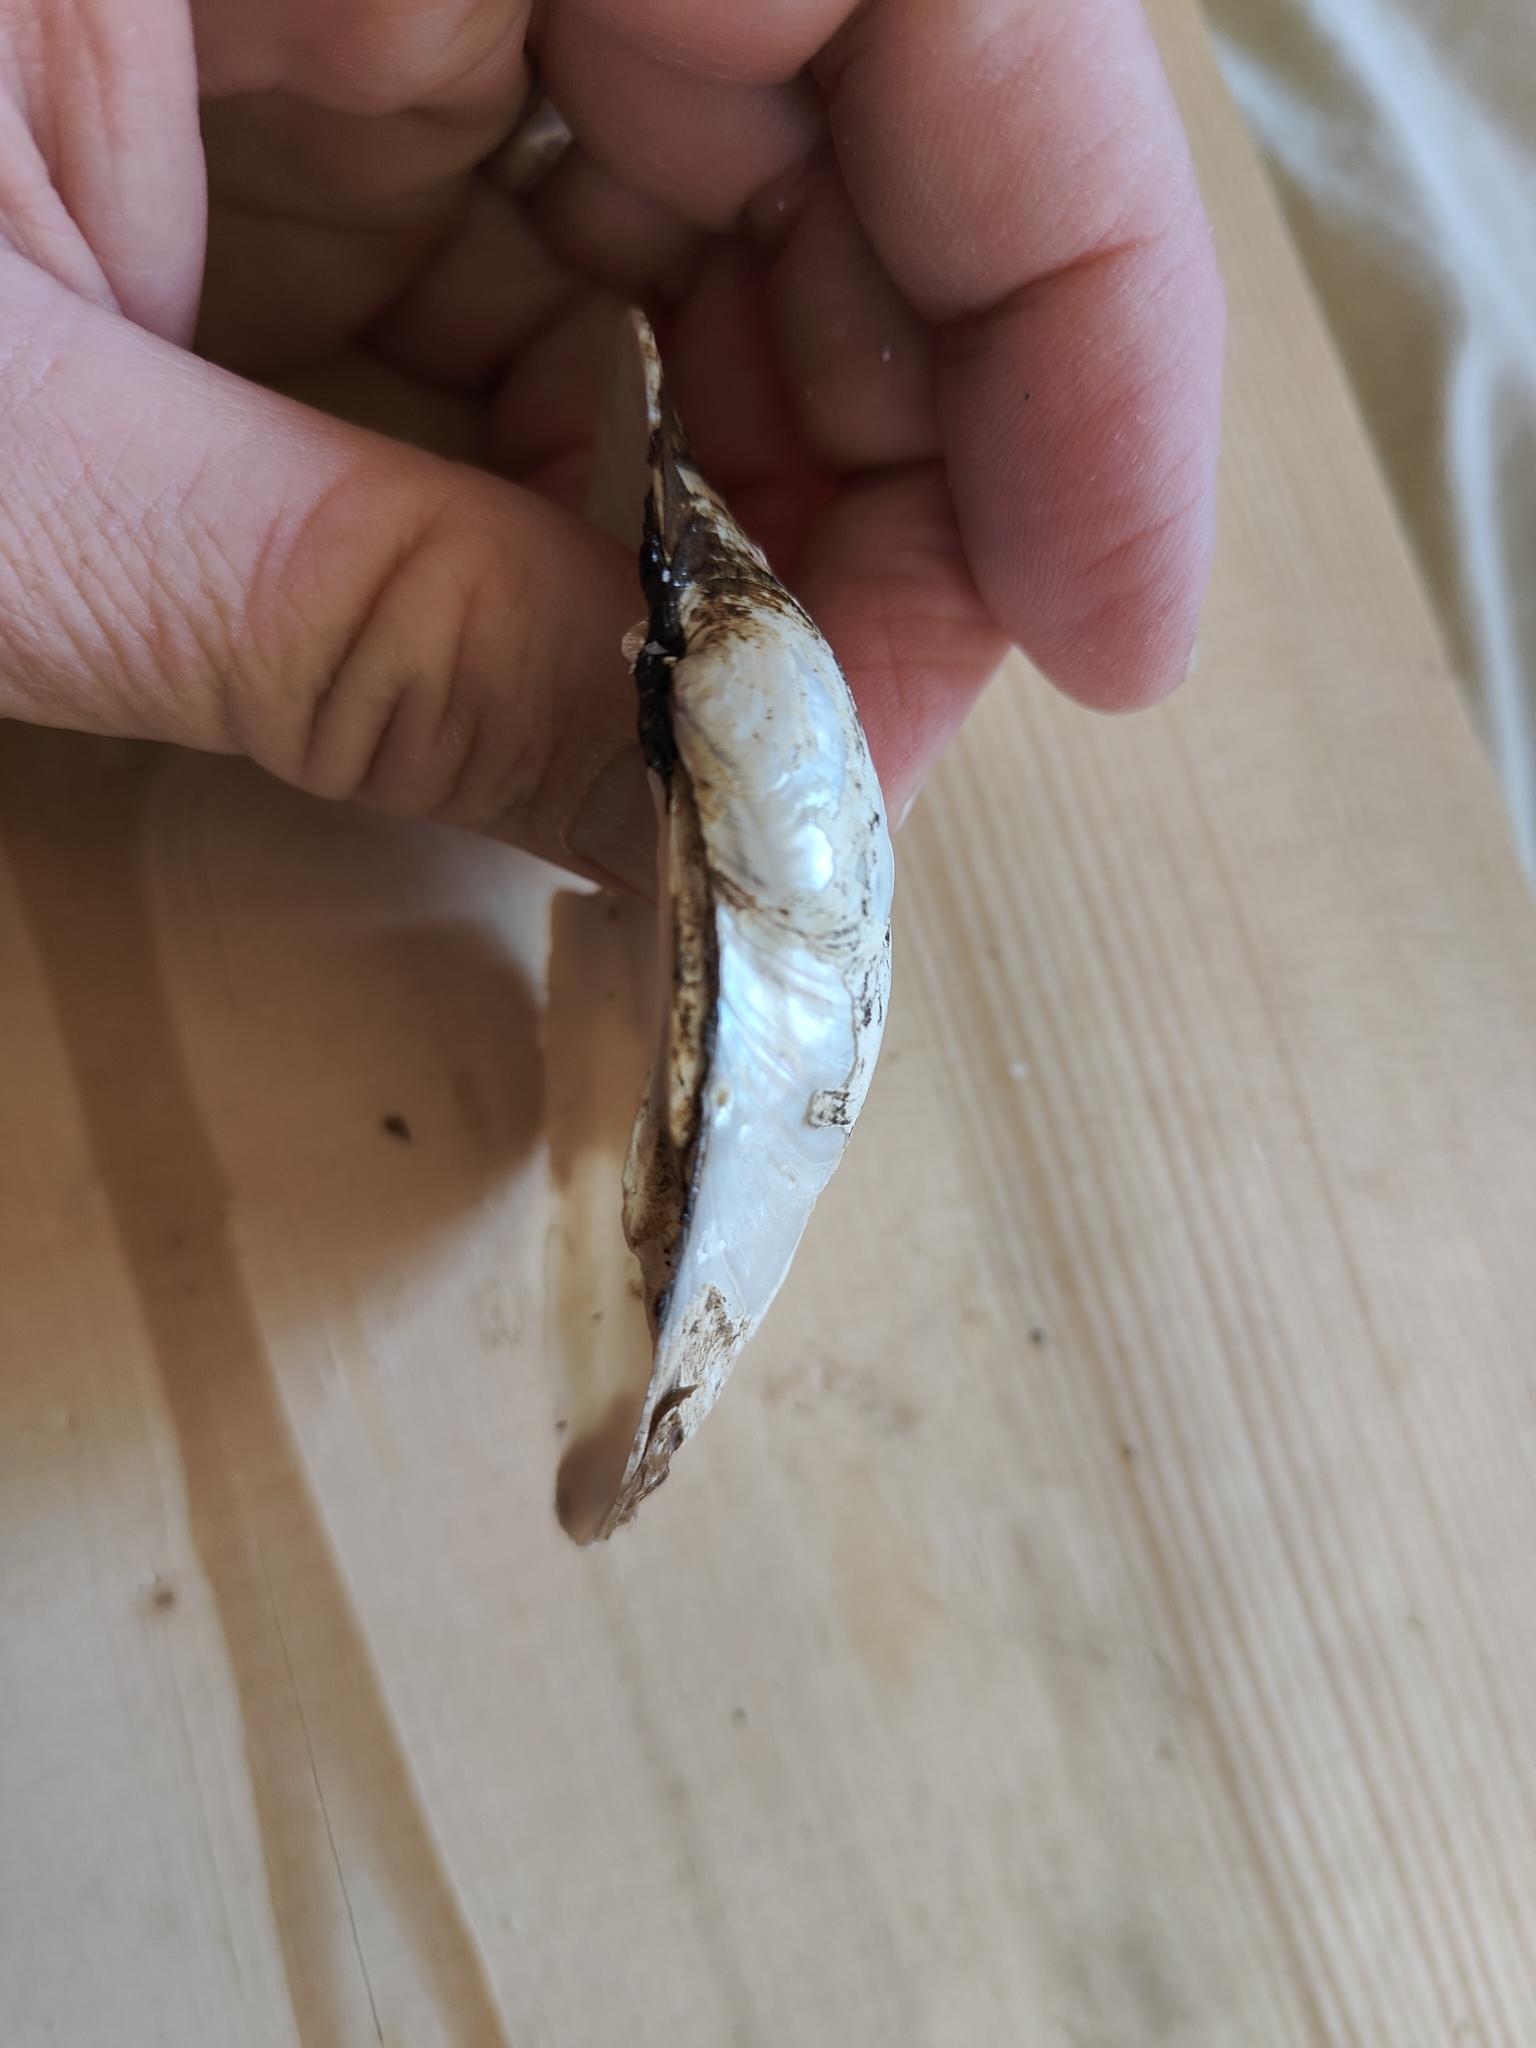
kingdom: Animalia
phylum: Mollusca
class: Bivalvia
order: Unionida
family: Unionidae
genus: Lampsilis
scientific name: Lampsilis cardium
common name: Plain pocketbook
